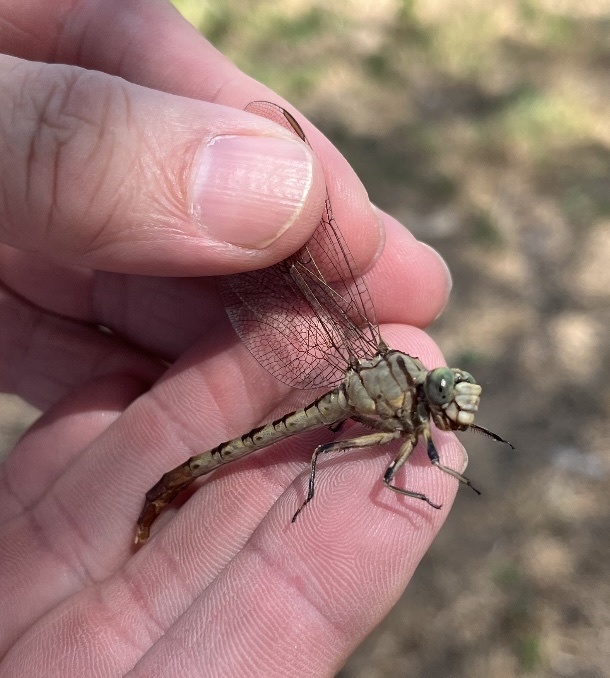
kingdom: Animalia
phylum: Arthropoda
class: Insecta
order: Odonata
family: Gomphidae
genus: Arigomphus
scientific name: Arigomphus submedianus
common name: Jade clubtail
